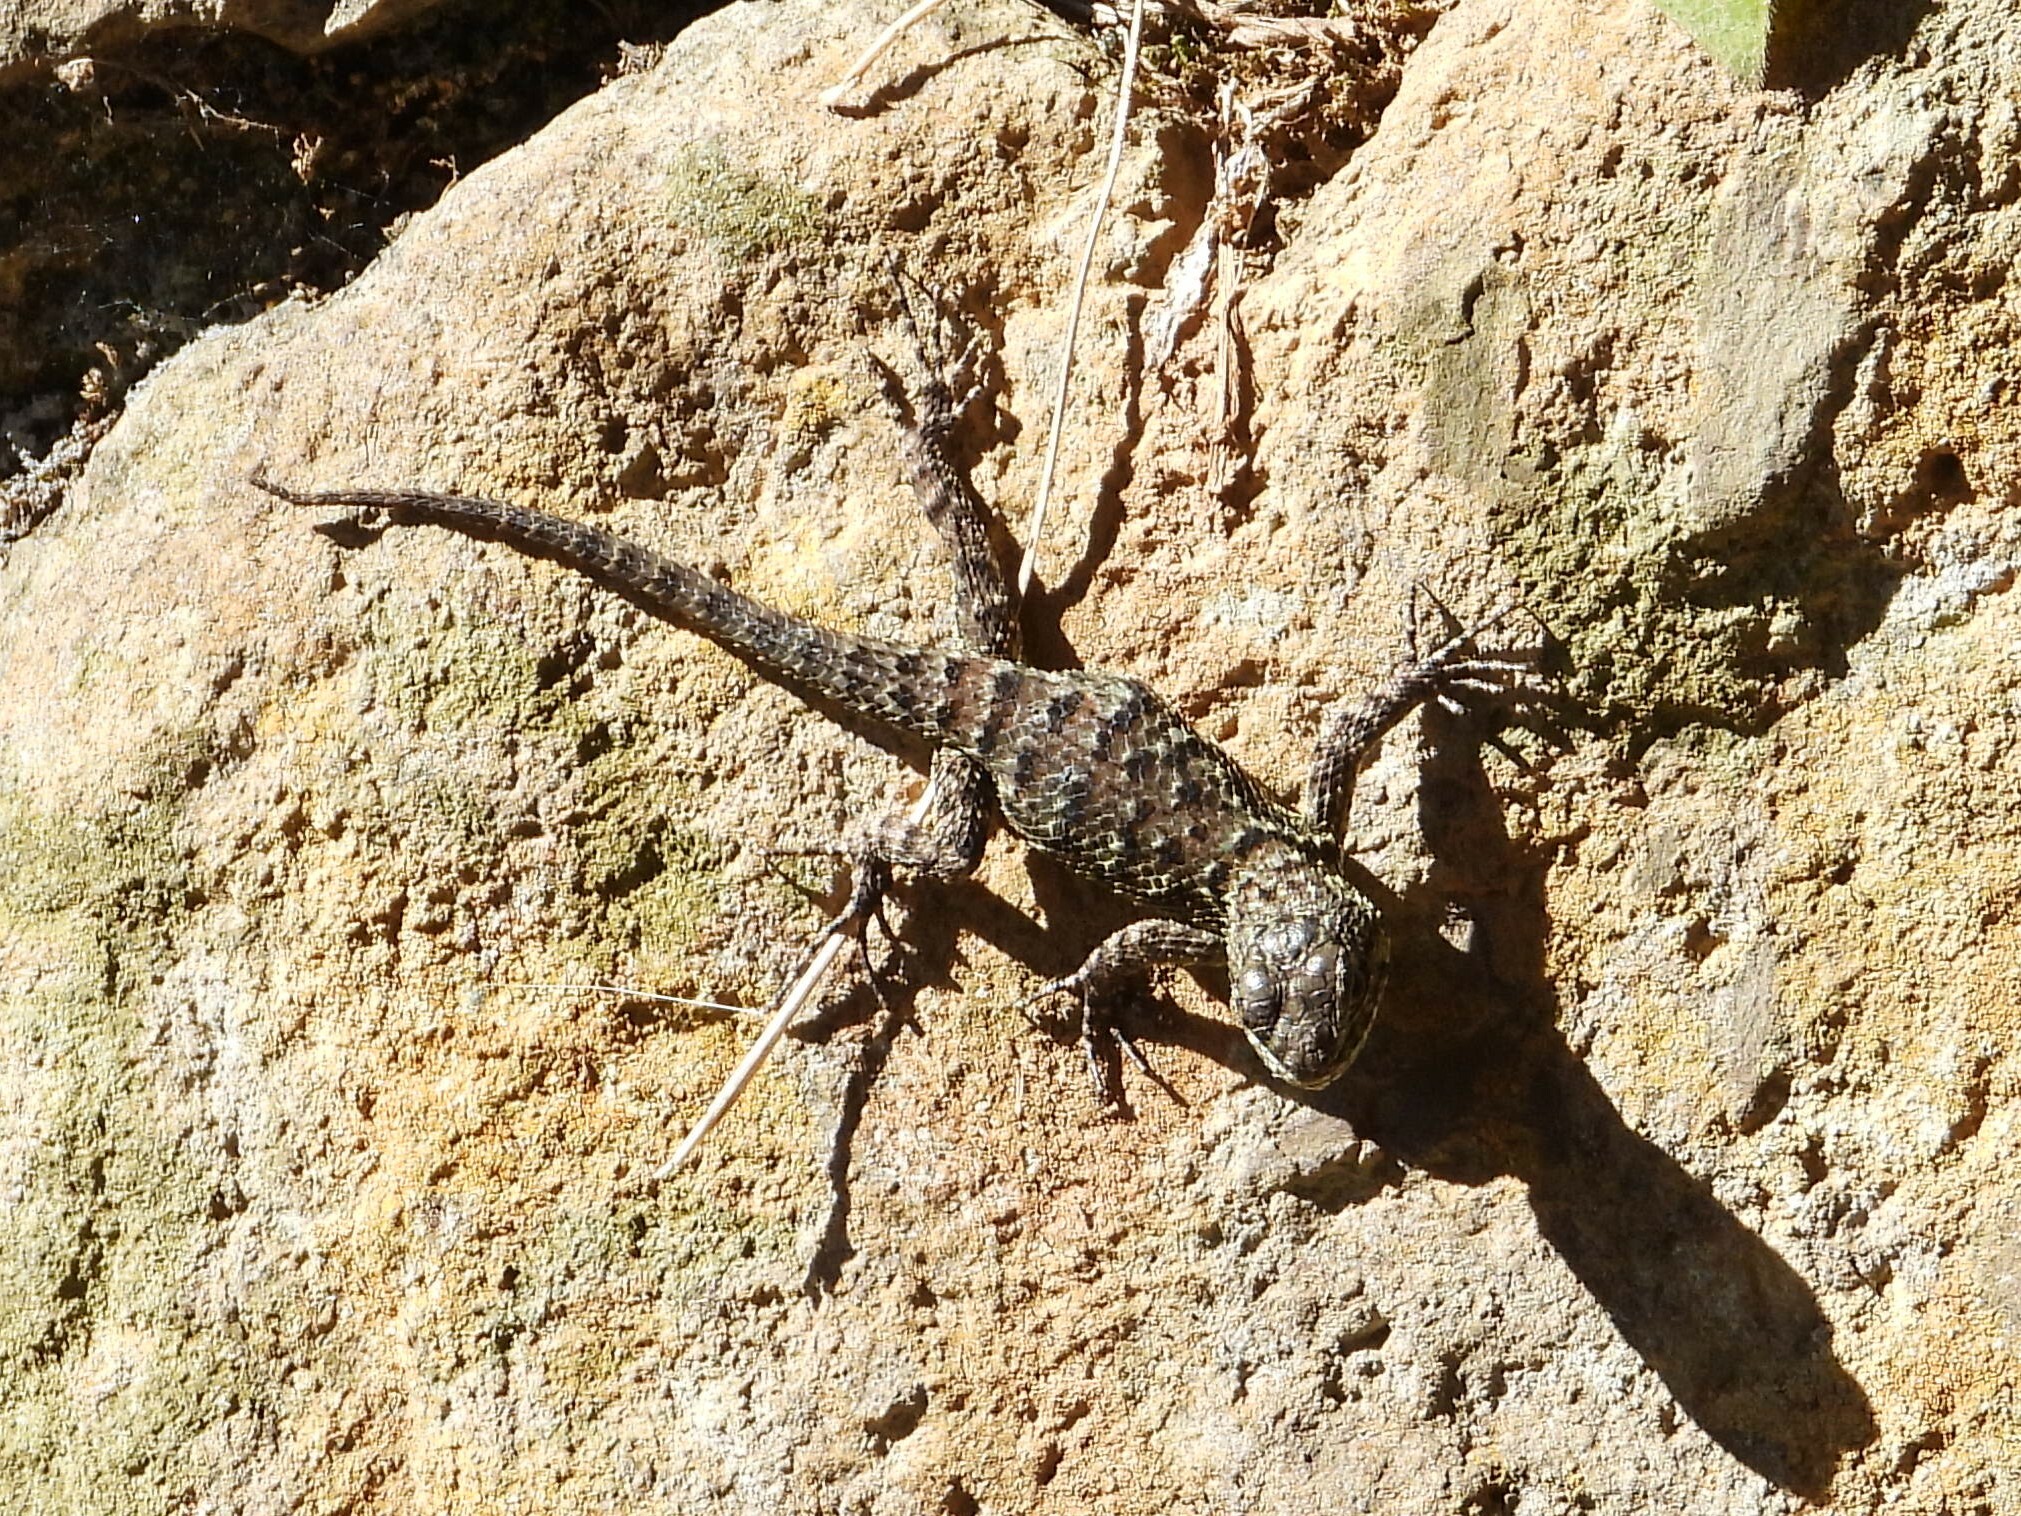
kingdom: Animalia
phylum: Chordata
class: Squamata
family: Phrynosomatidae
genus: Sceloporus
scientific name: Sceloporus malachiticus
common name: Green spiny lizard
